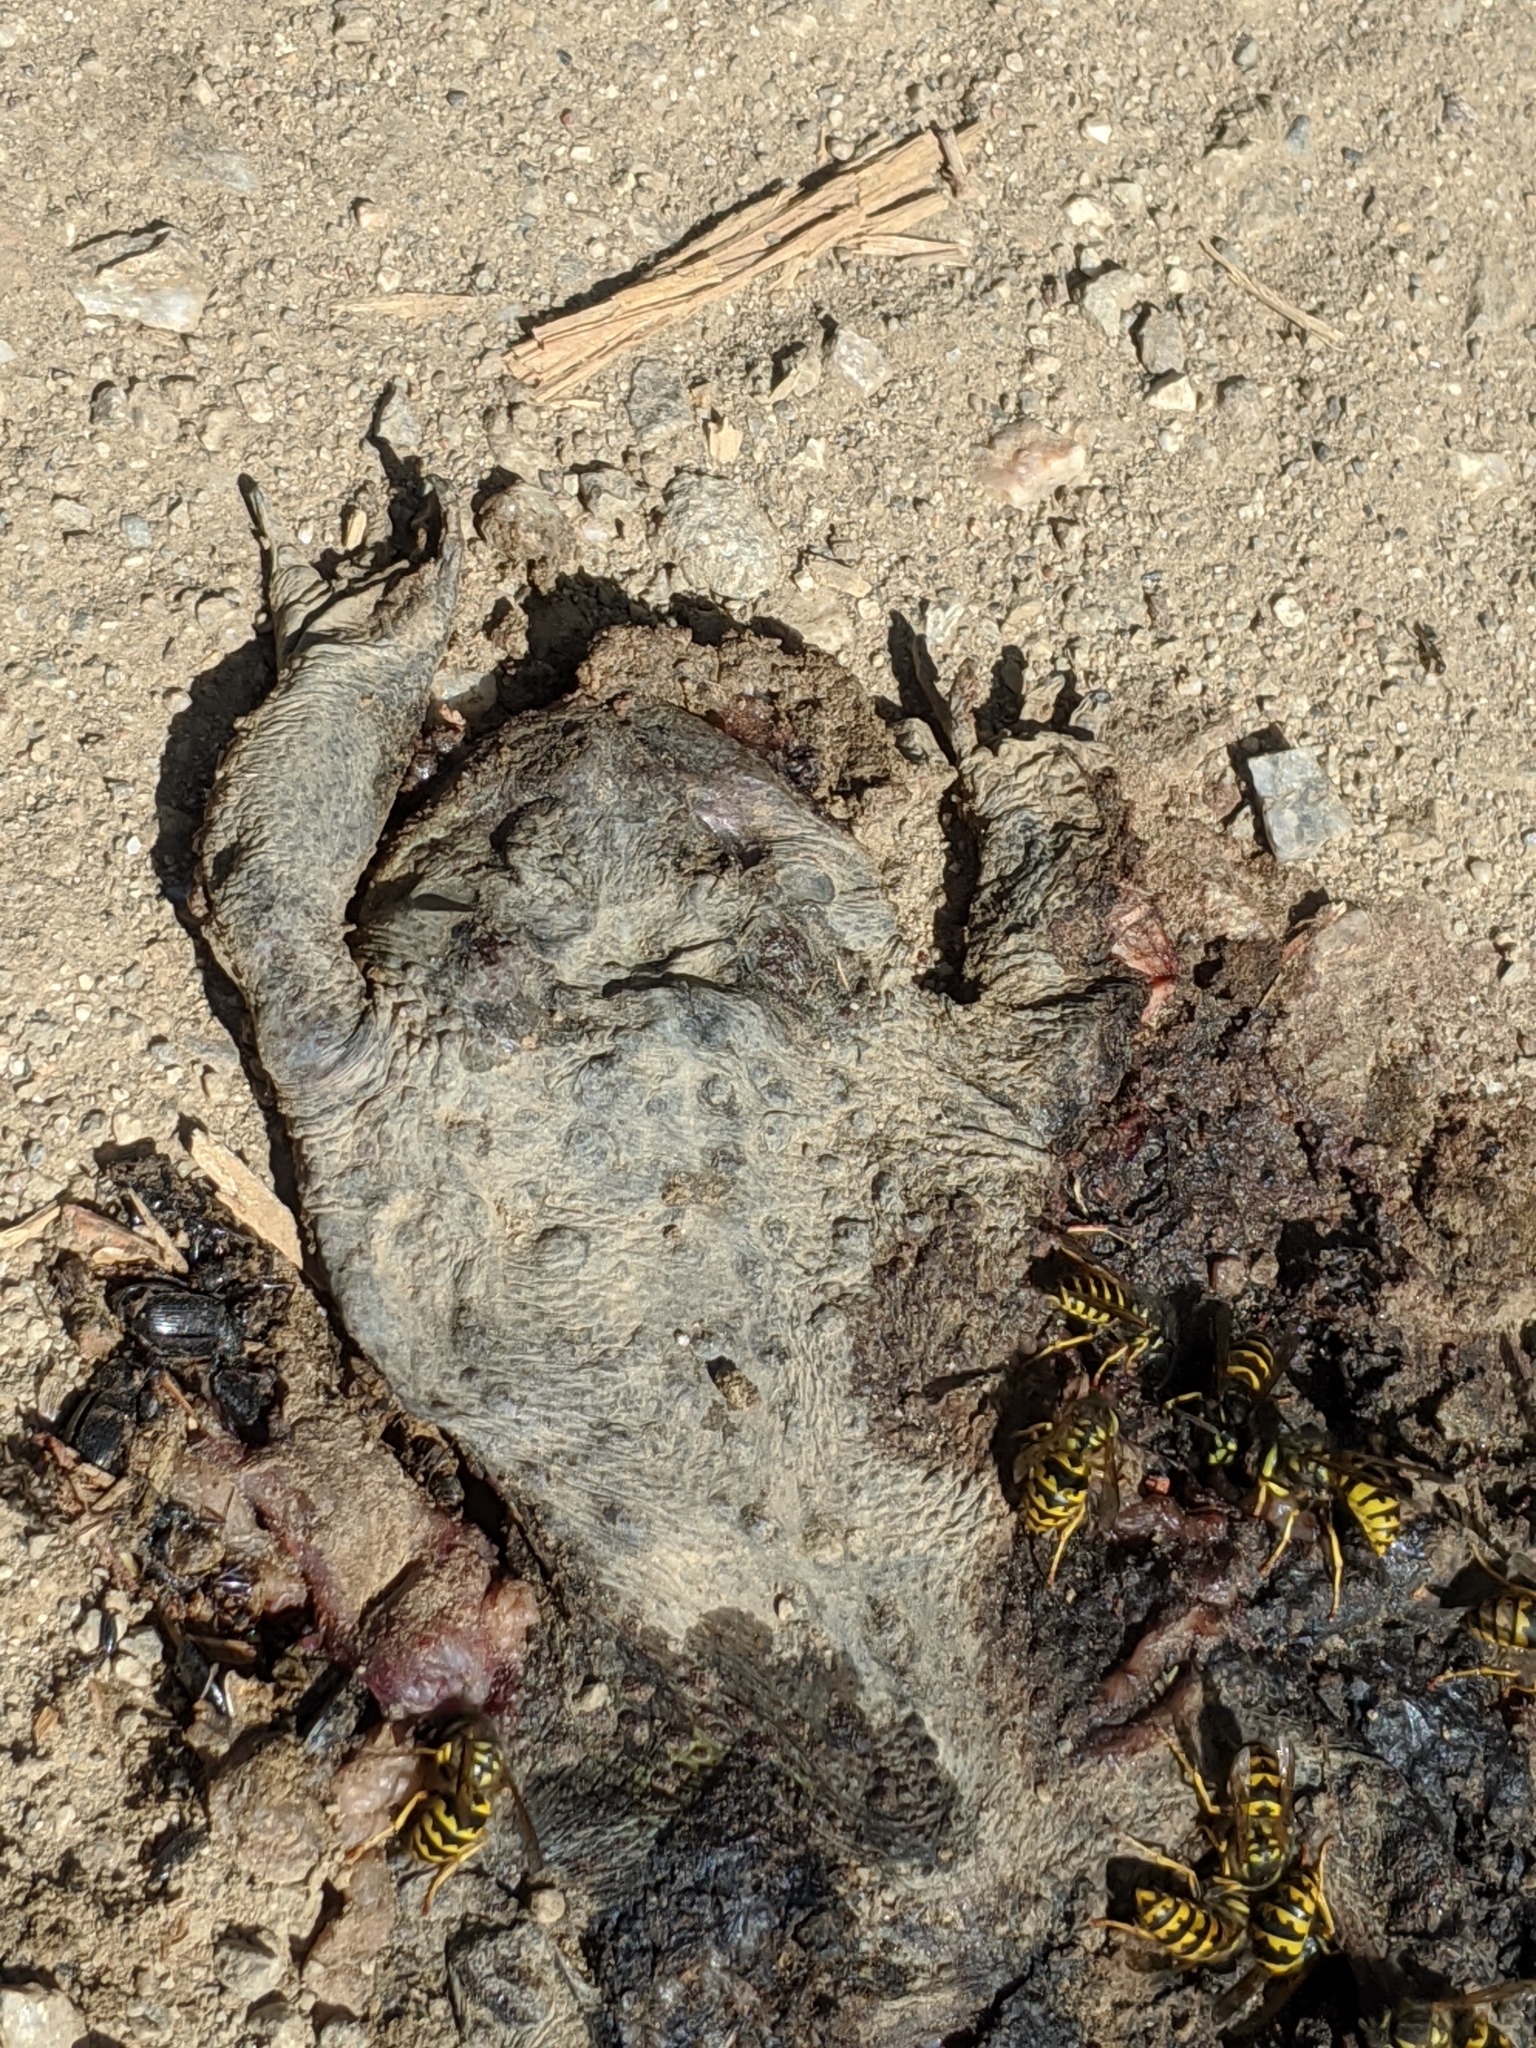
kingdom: Animalia
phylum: Chordata
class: Amphibia
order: Anura
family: Bufonidae
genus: Anaxyrus
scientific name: Anaxyrus boreas
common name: Western toad
